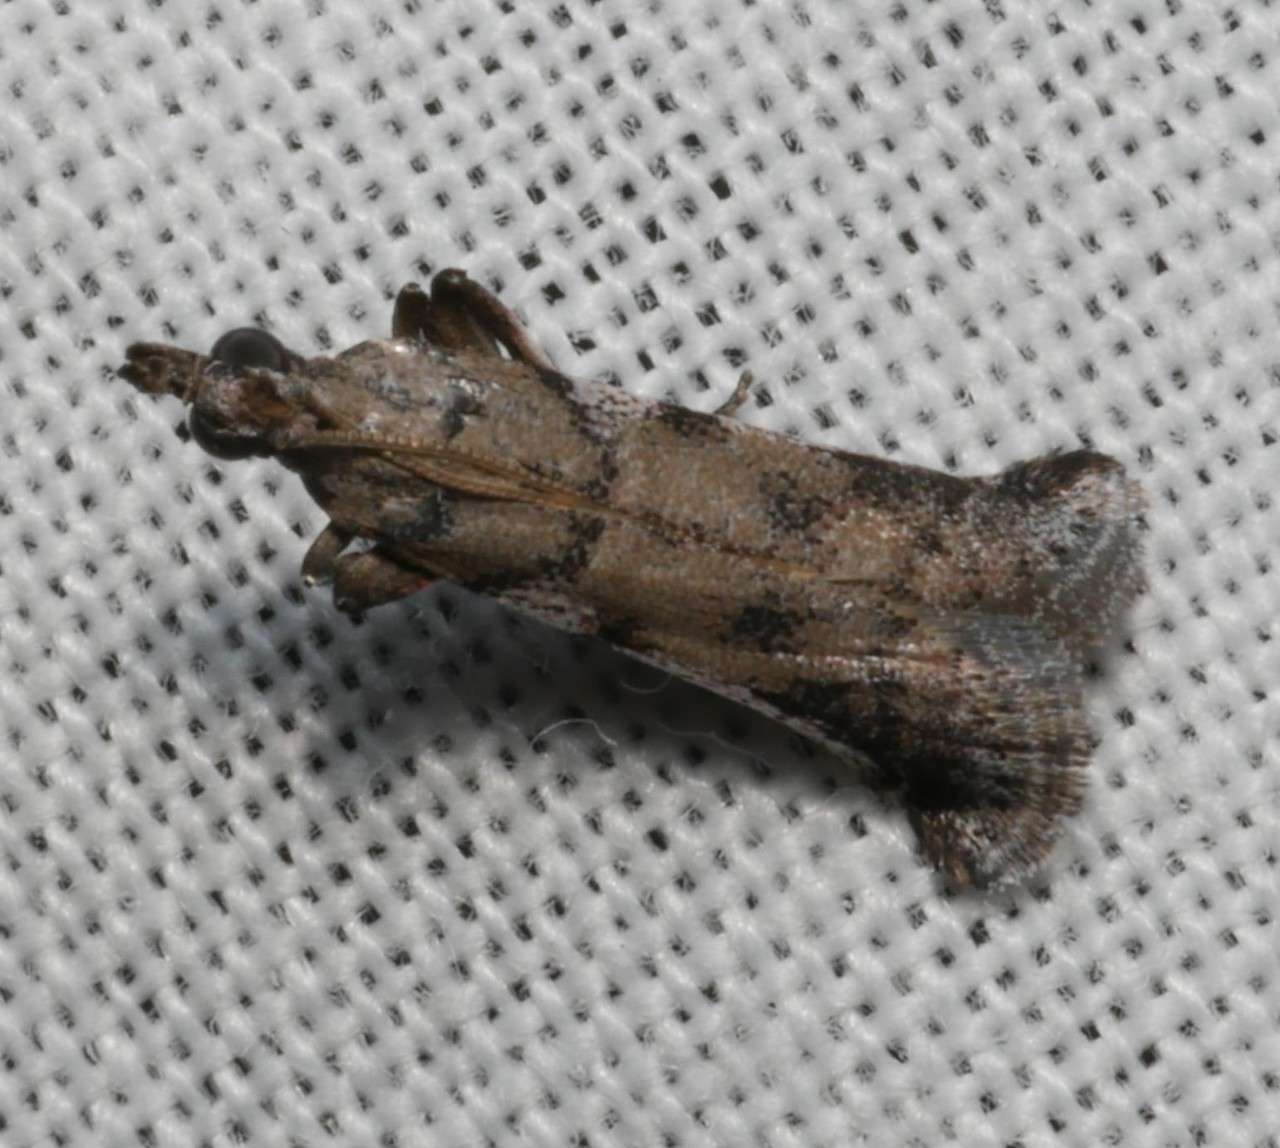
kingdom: Animalia
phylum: Arthropoda
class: Insecta
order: Lepidoptera
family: Pyralidae
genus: Assara
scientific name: Assara holophragma
